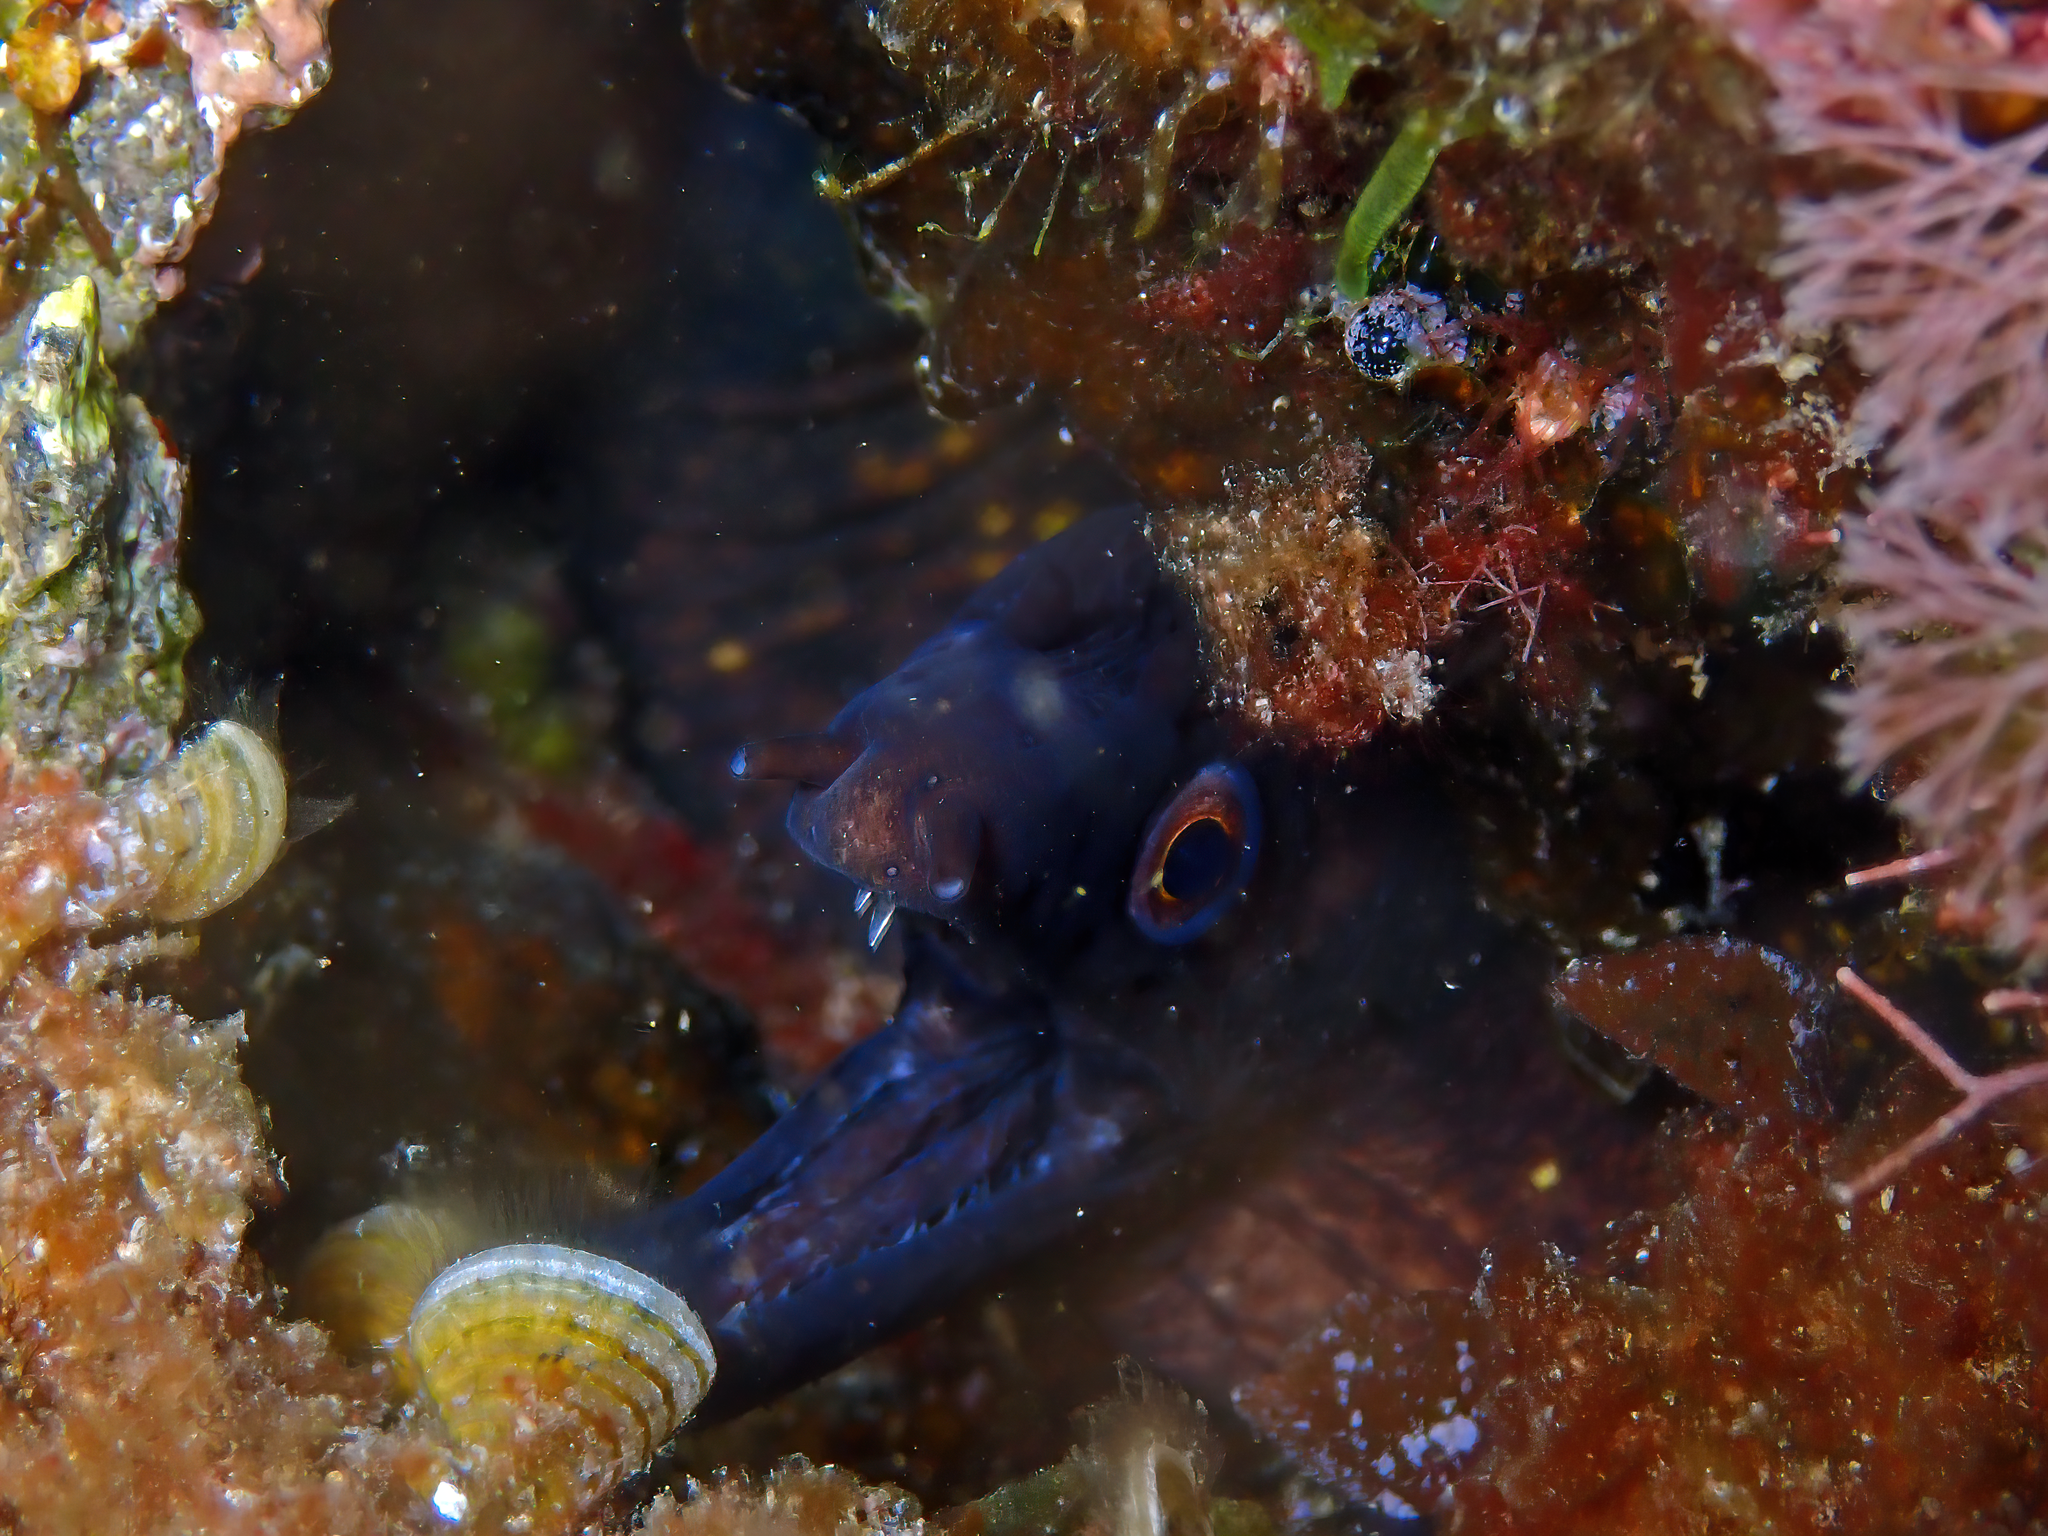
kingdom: Animalia
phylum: Chordata
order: Anguilliformes
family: Muraenidae
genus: Muraena
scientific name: Muraena helena
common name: Mediterranean moray
